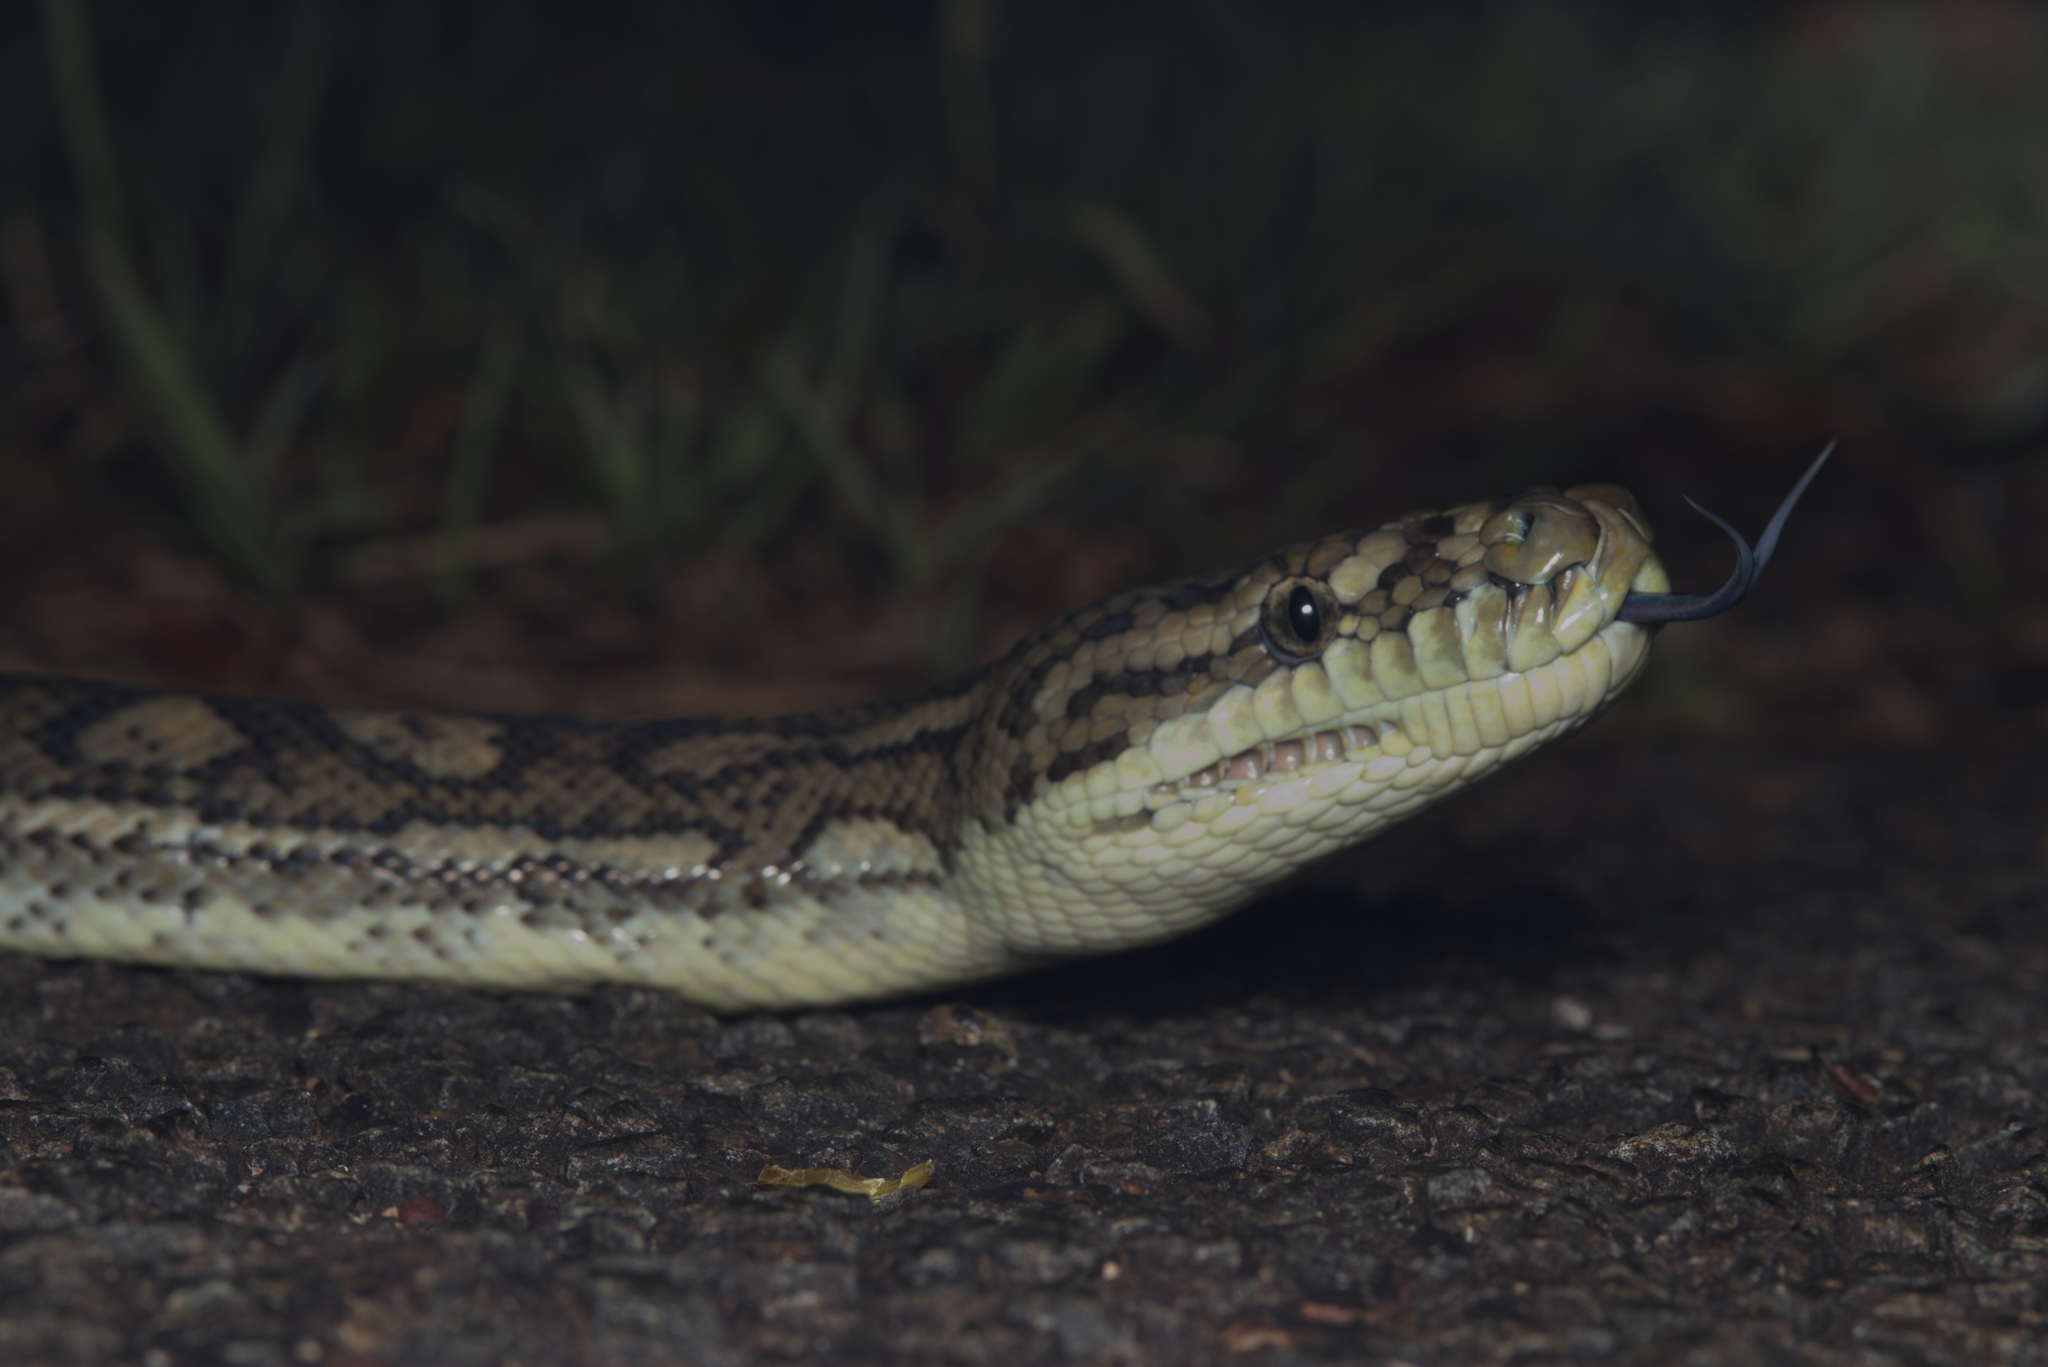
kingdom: Animalia
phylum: Chordata
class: Squamata
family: Pythonidae
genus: Morelia
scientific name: Morelia spilota
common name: Carpet python
